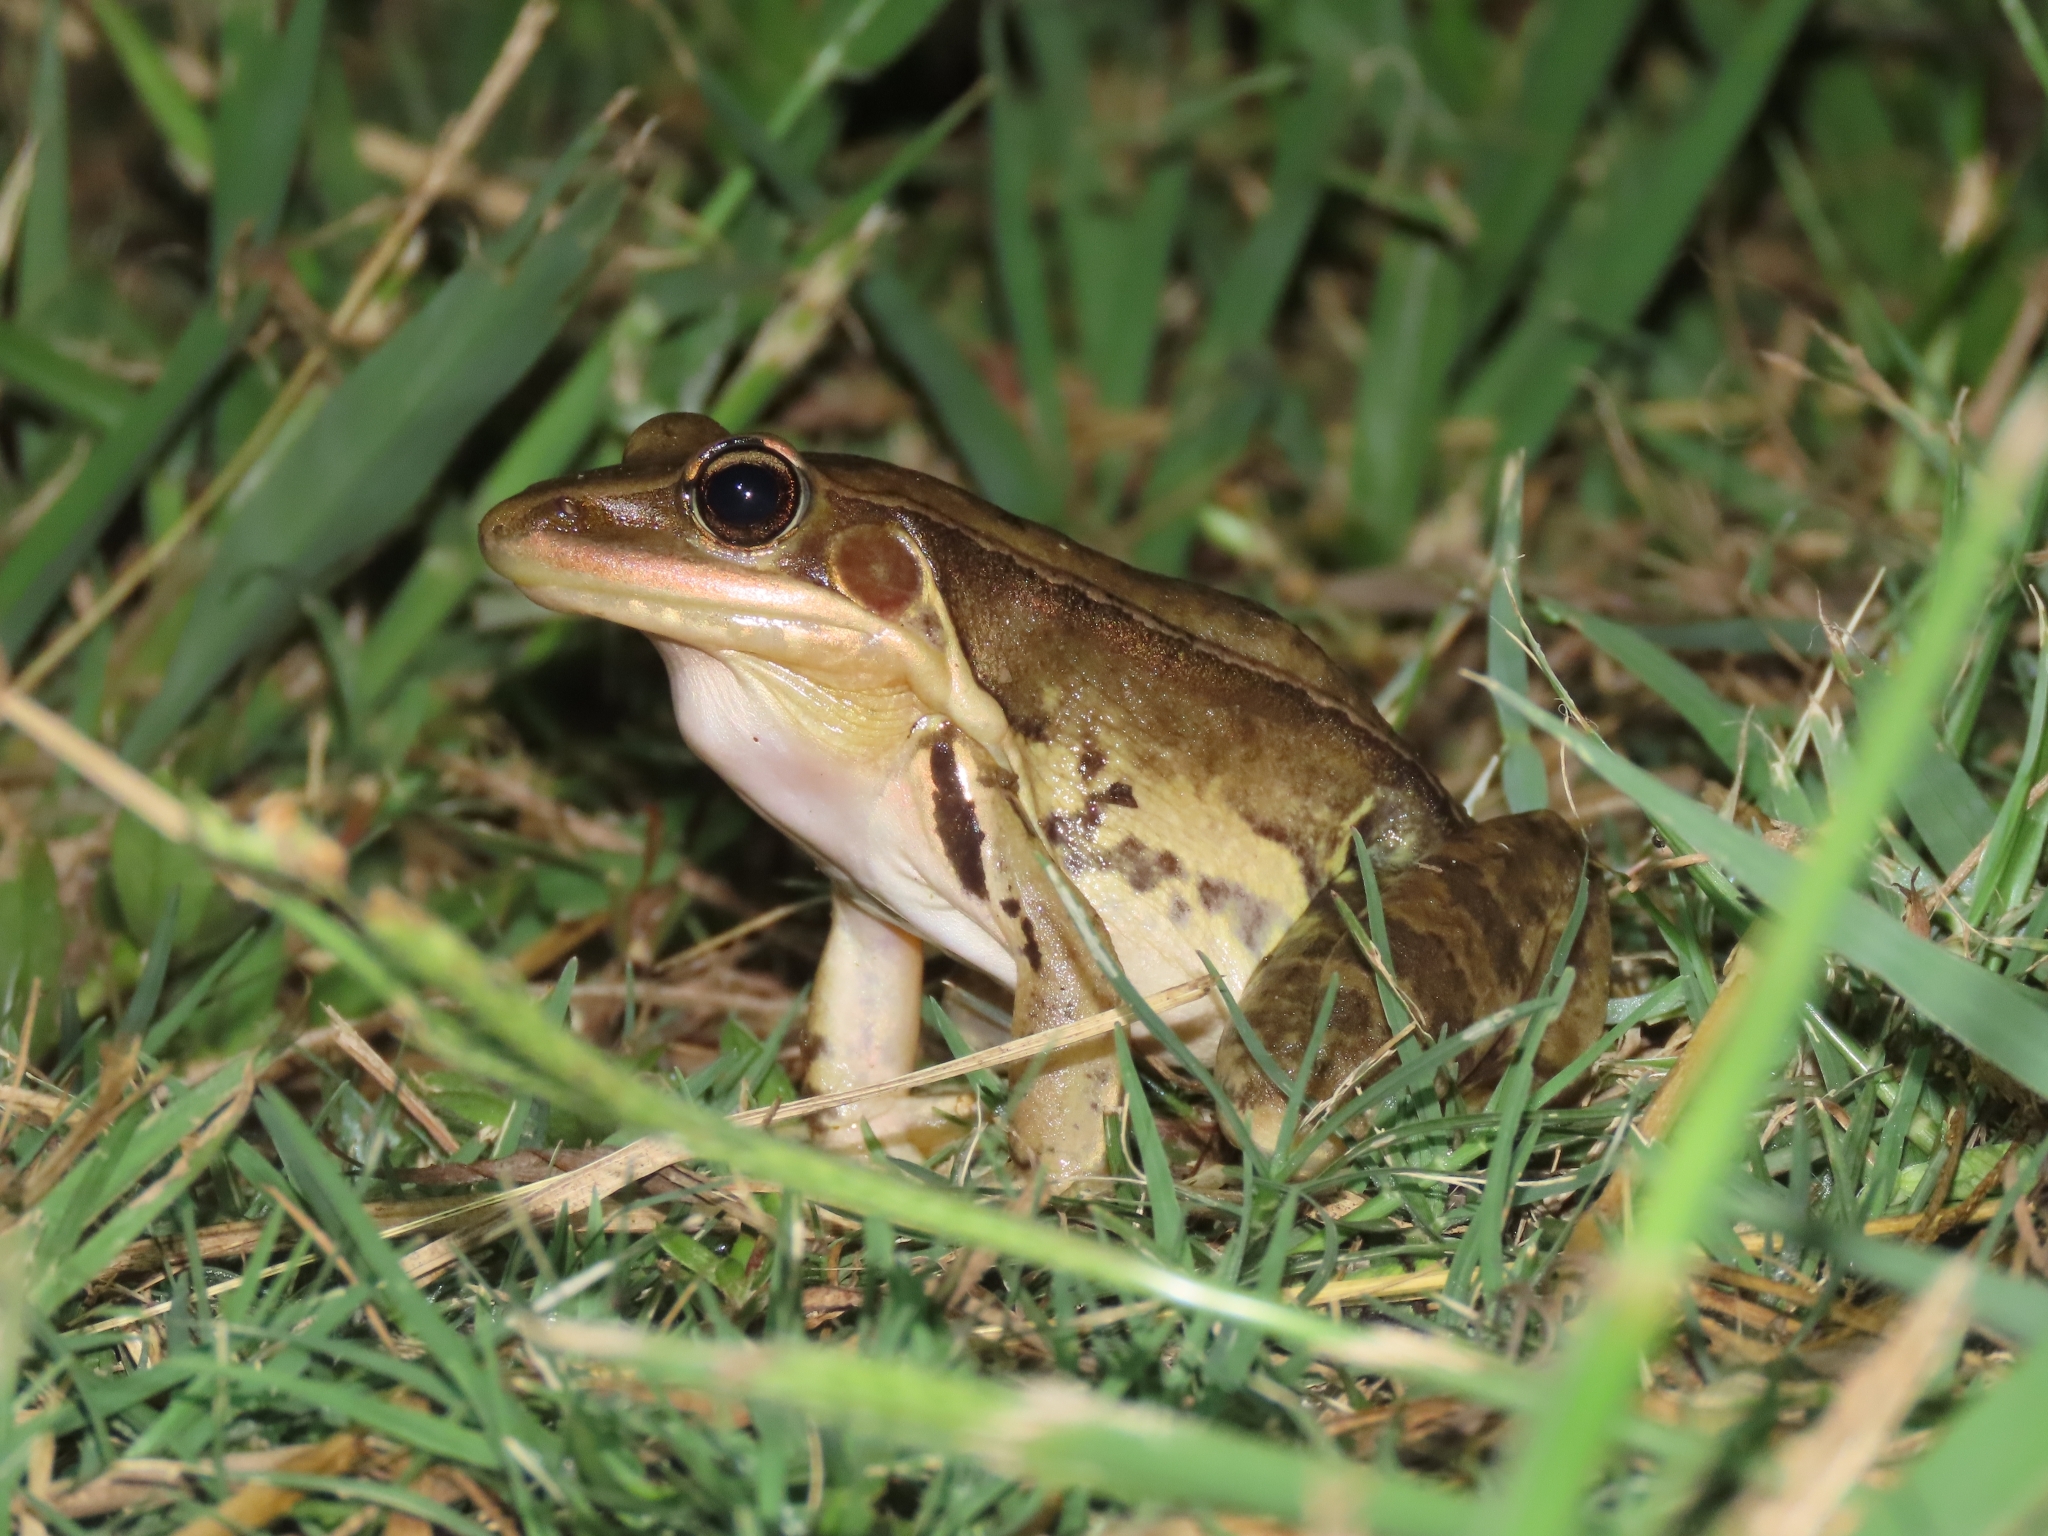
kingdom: Animalia
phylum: Chordata
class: Amphibia
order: Anura
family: Ranidae
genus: Sylvirana
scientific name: Sylvirana guentheri
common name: Guenther's amoy frog
